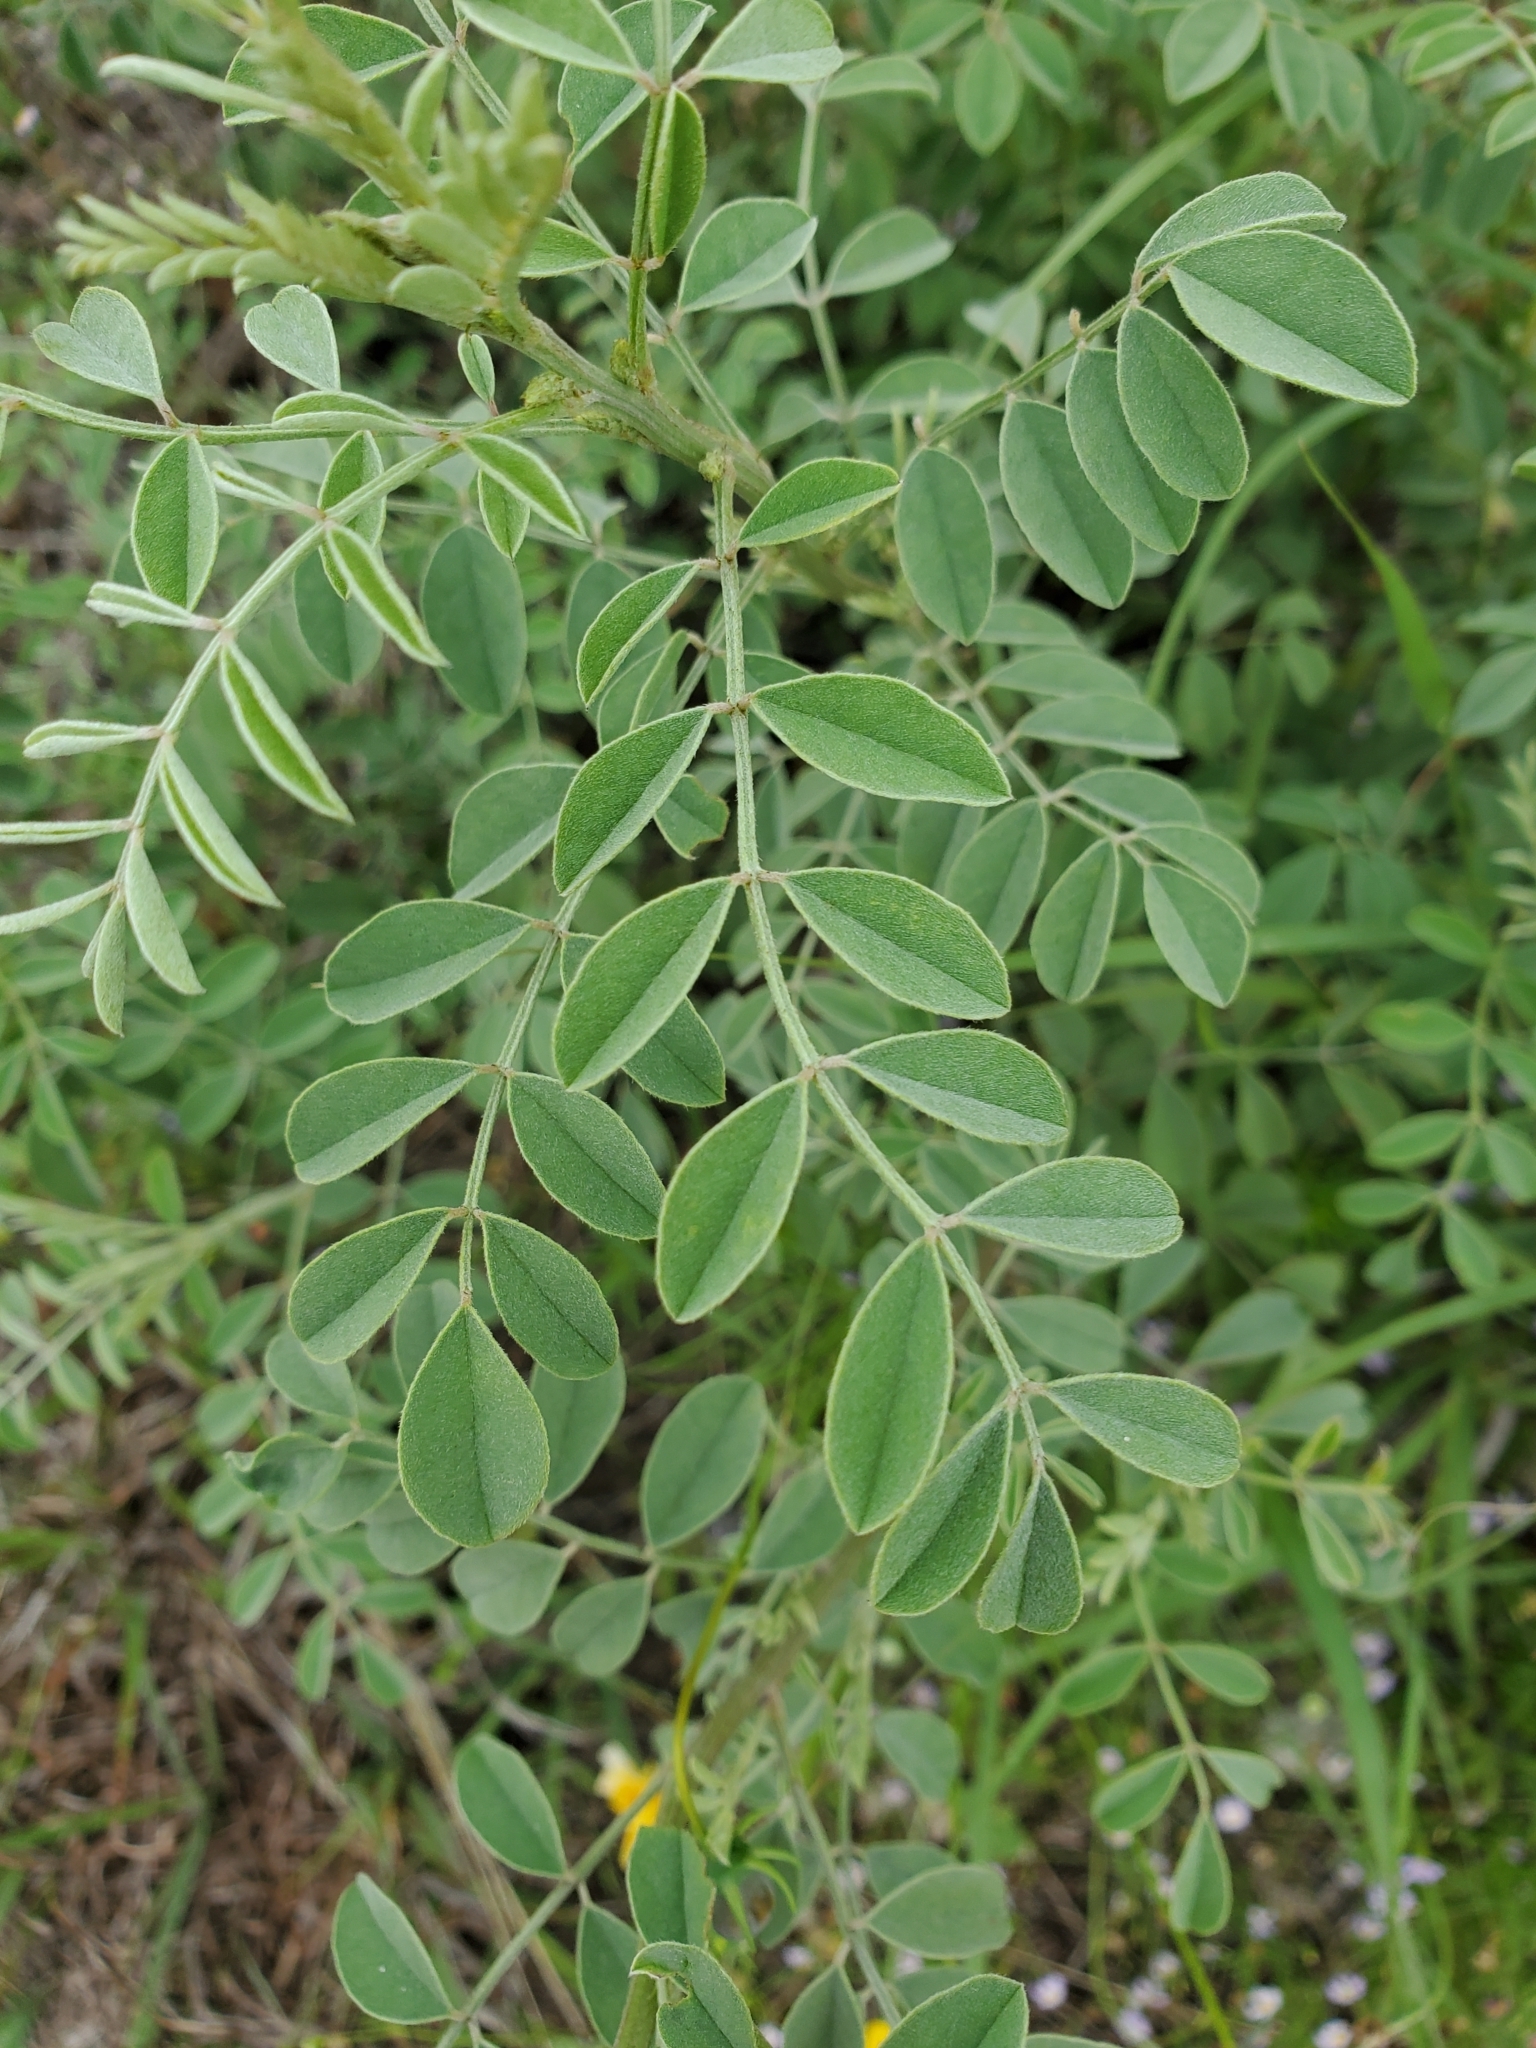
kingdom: Plantae
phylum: Tracheophyta
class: Magnoliopsida
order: Fabales
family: Fabaceae
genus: Indigofera
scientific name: Indigofera lindheimeriana
